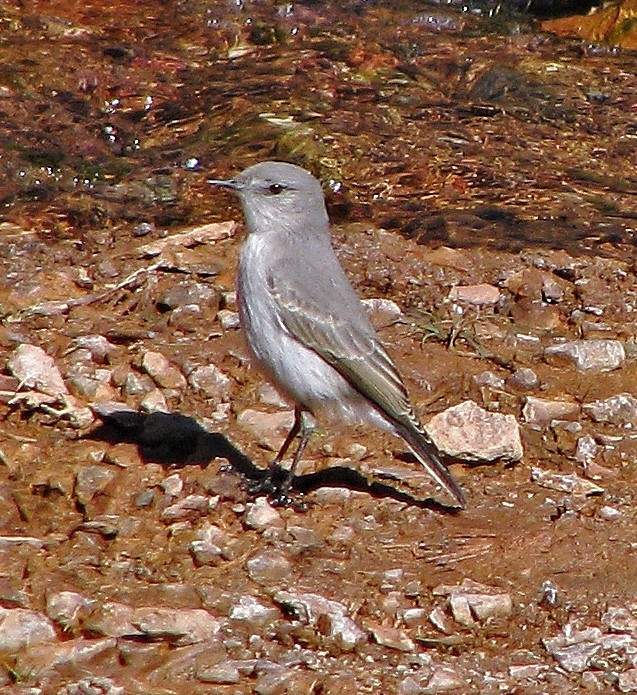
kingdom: Animalia
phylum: Chordata
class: Aves
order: Passeriformes
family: Tyrannidae
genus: Muscisaxicola
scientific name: Muscisaxicola cinereus
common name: Cinereous ground tyrant
